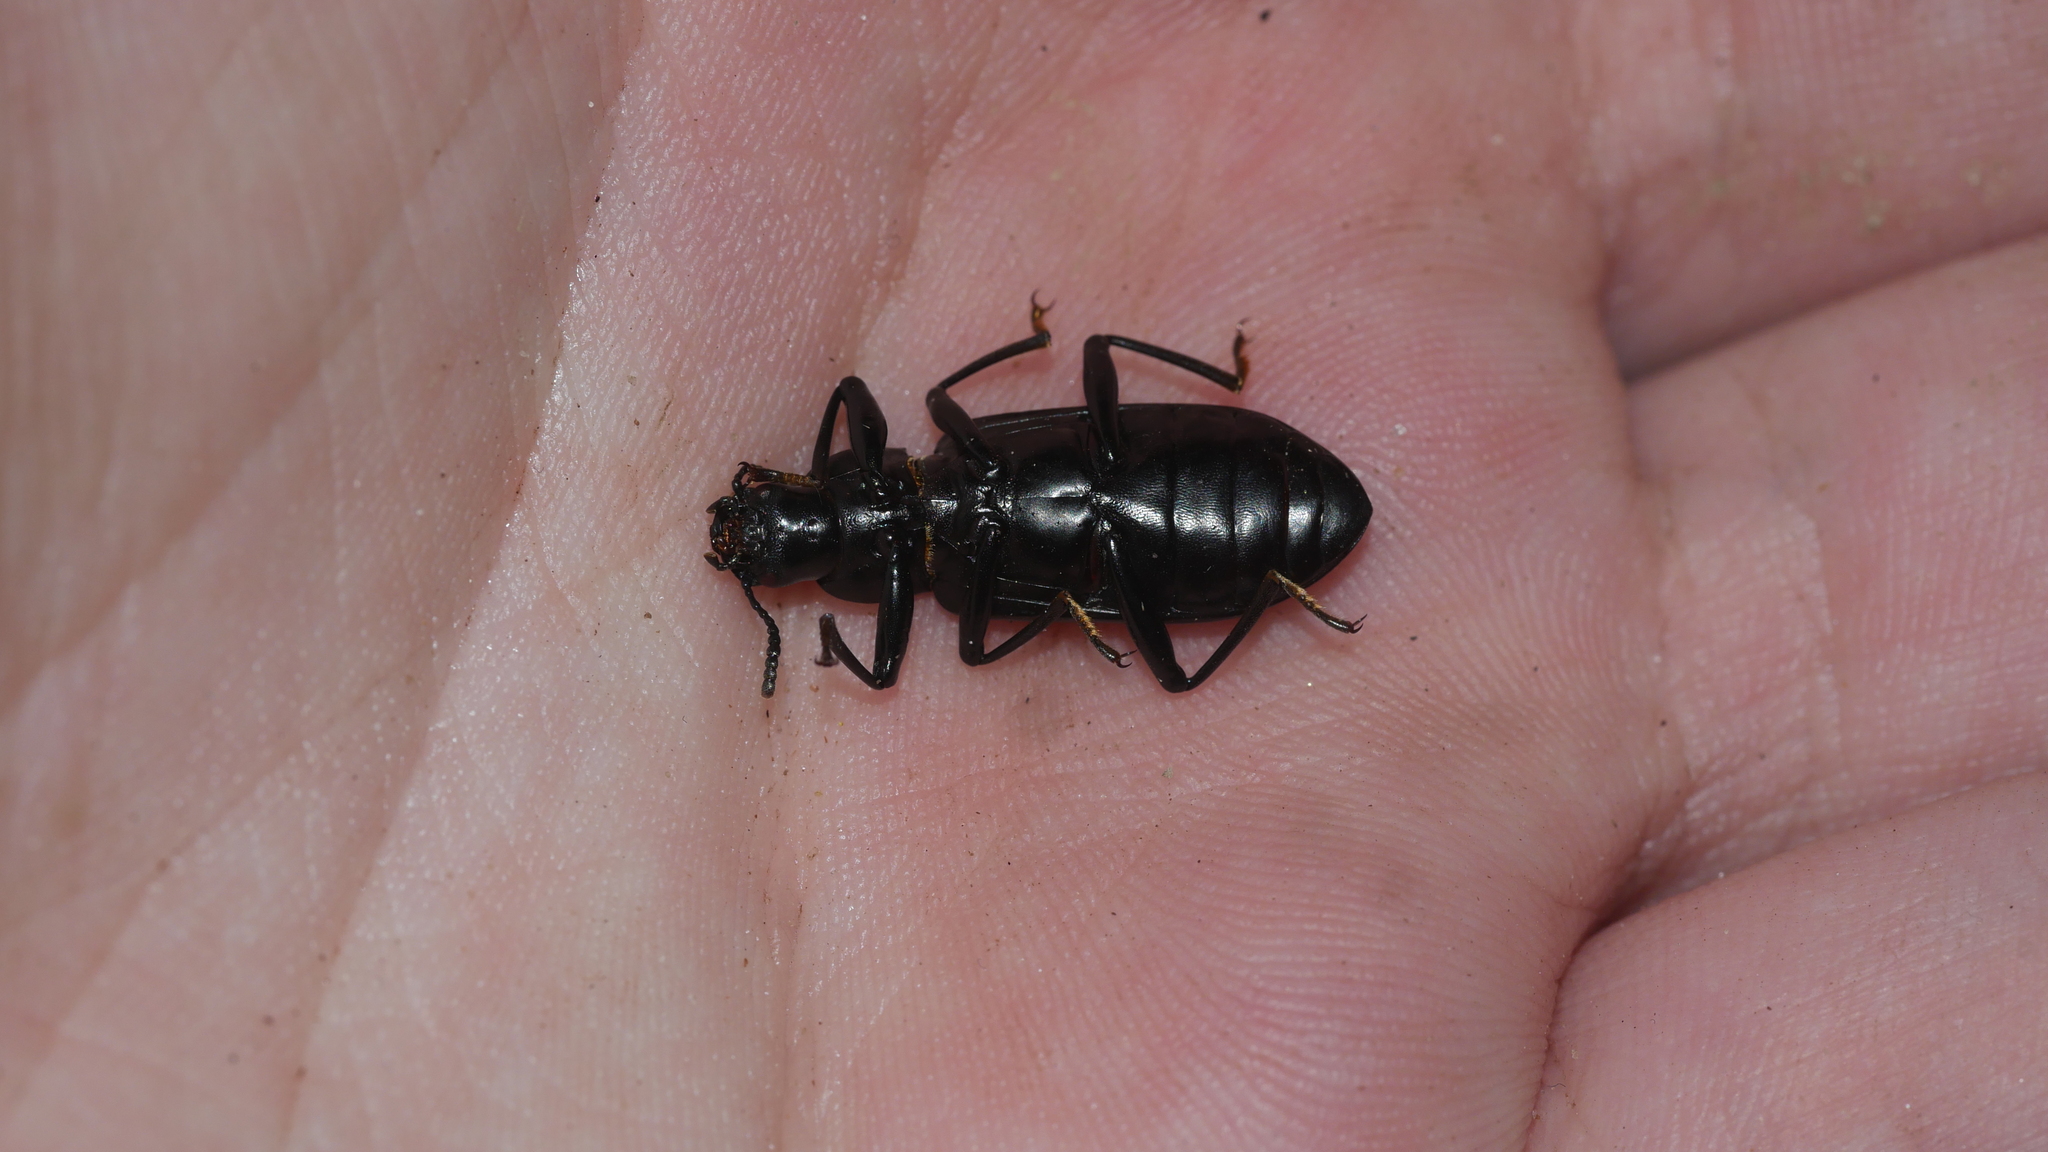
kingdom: Animalia
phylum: Arthropoda
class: Insecta
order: Coleoptera
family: Tenebrionidae
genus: Alobates
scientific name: Alobates pensylvanicus
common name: False mealworm beetle
